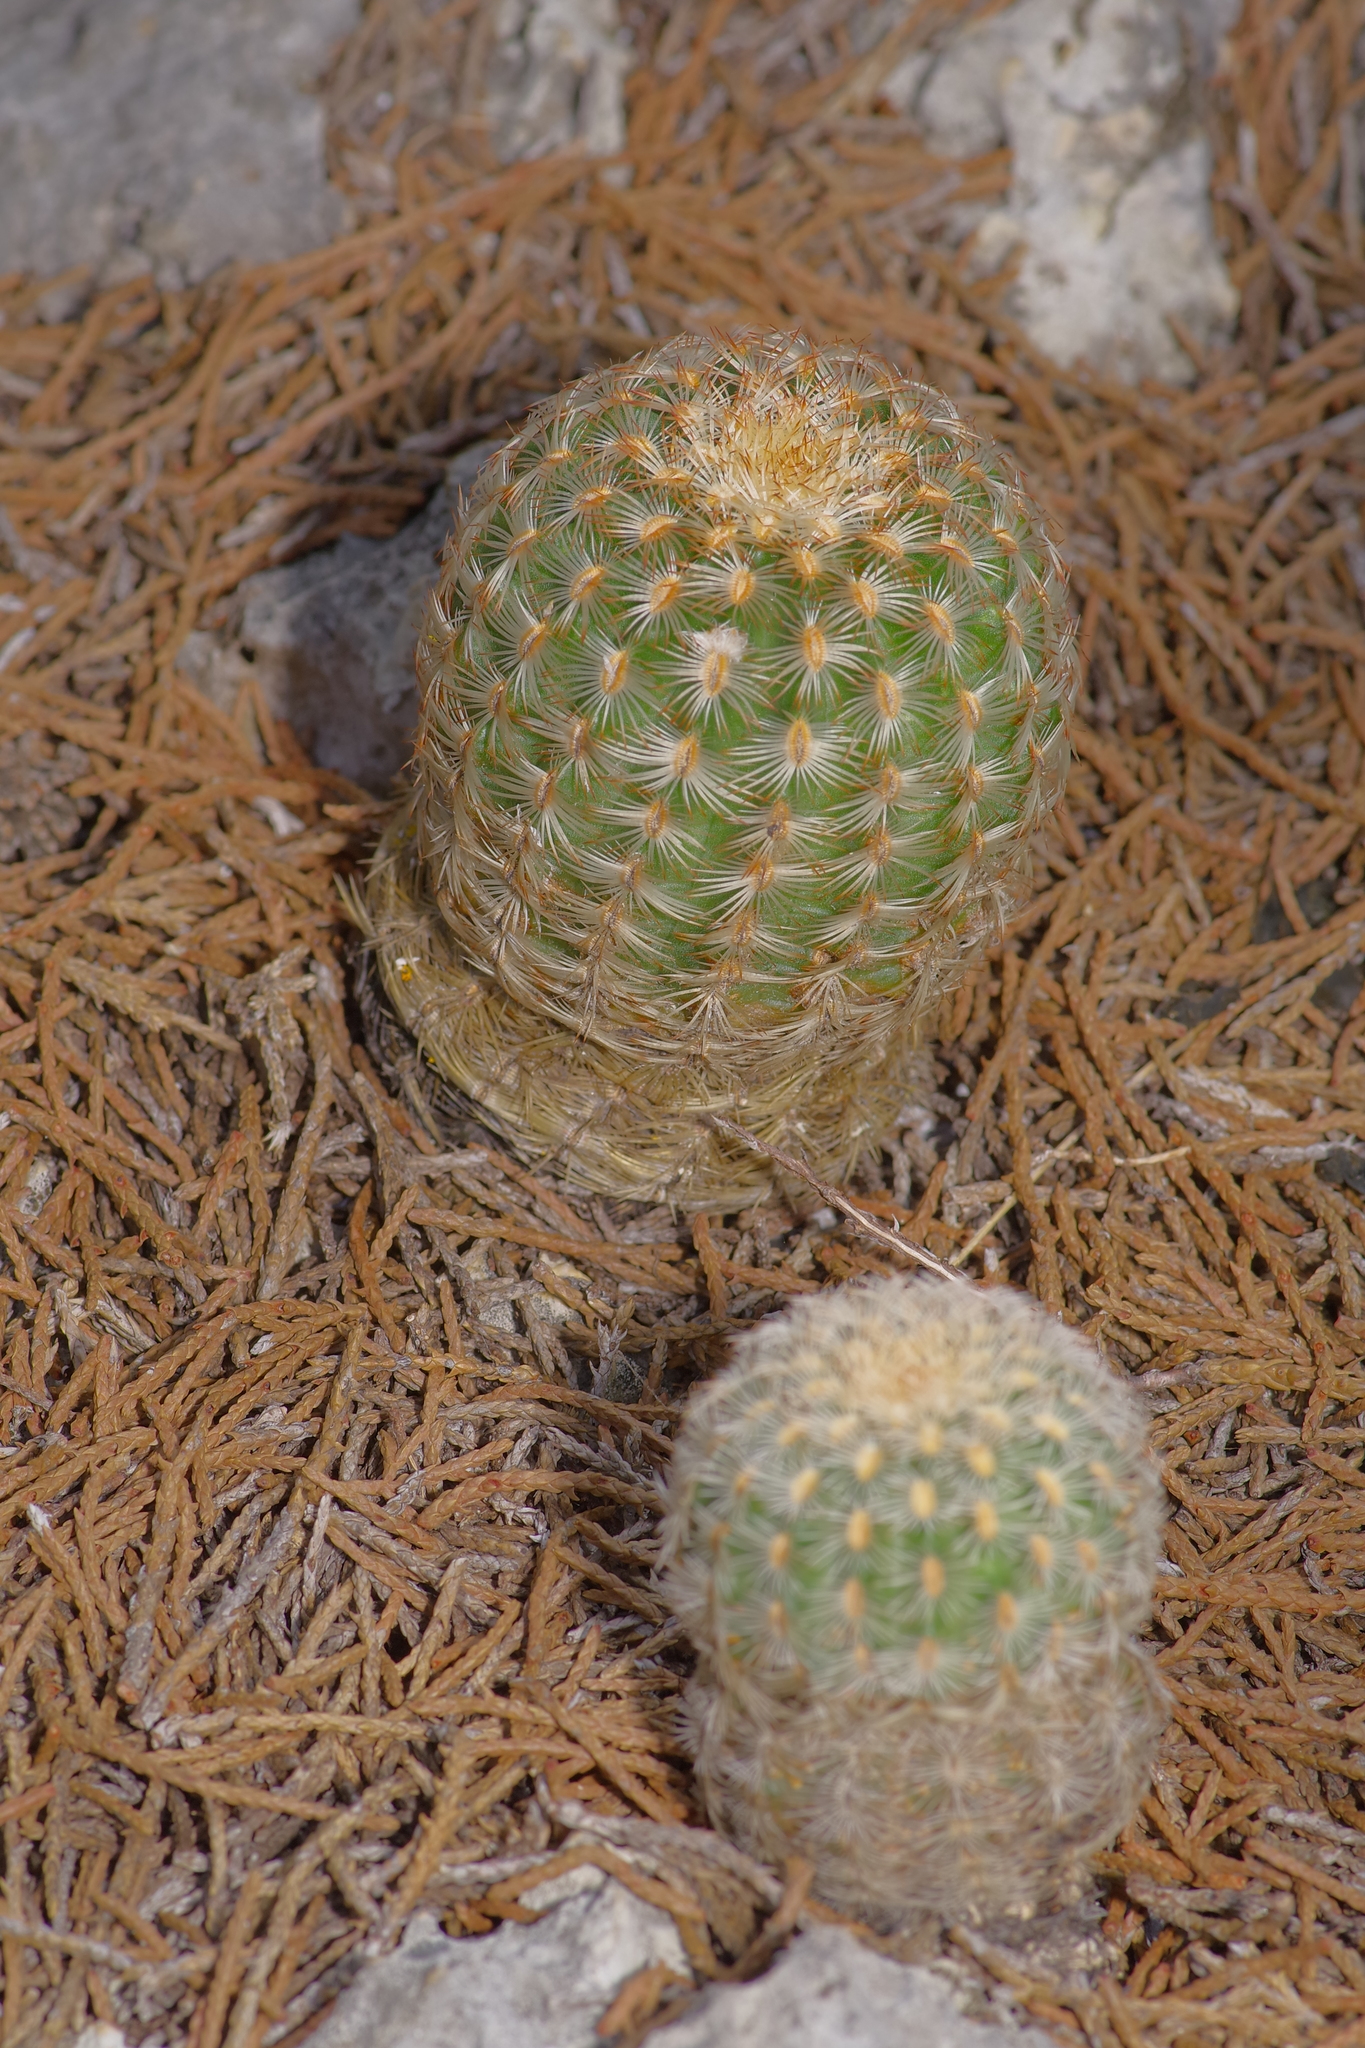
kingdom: Plantae
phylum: Tracheophyta
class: Magnoliopsida
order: Caryophyllales
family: Cactaceae
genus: Echinocereus
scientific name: Echinocereus reichenbachii
